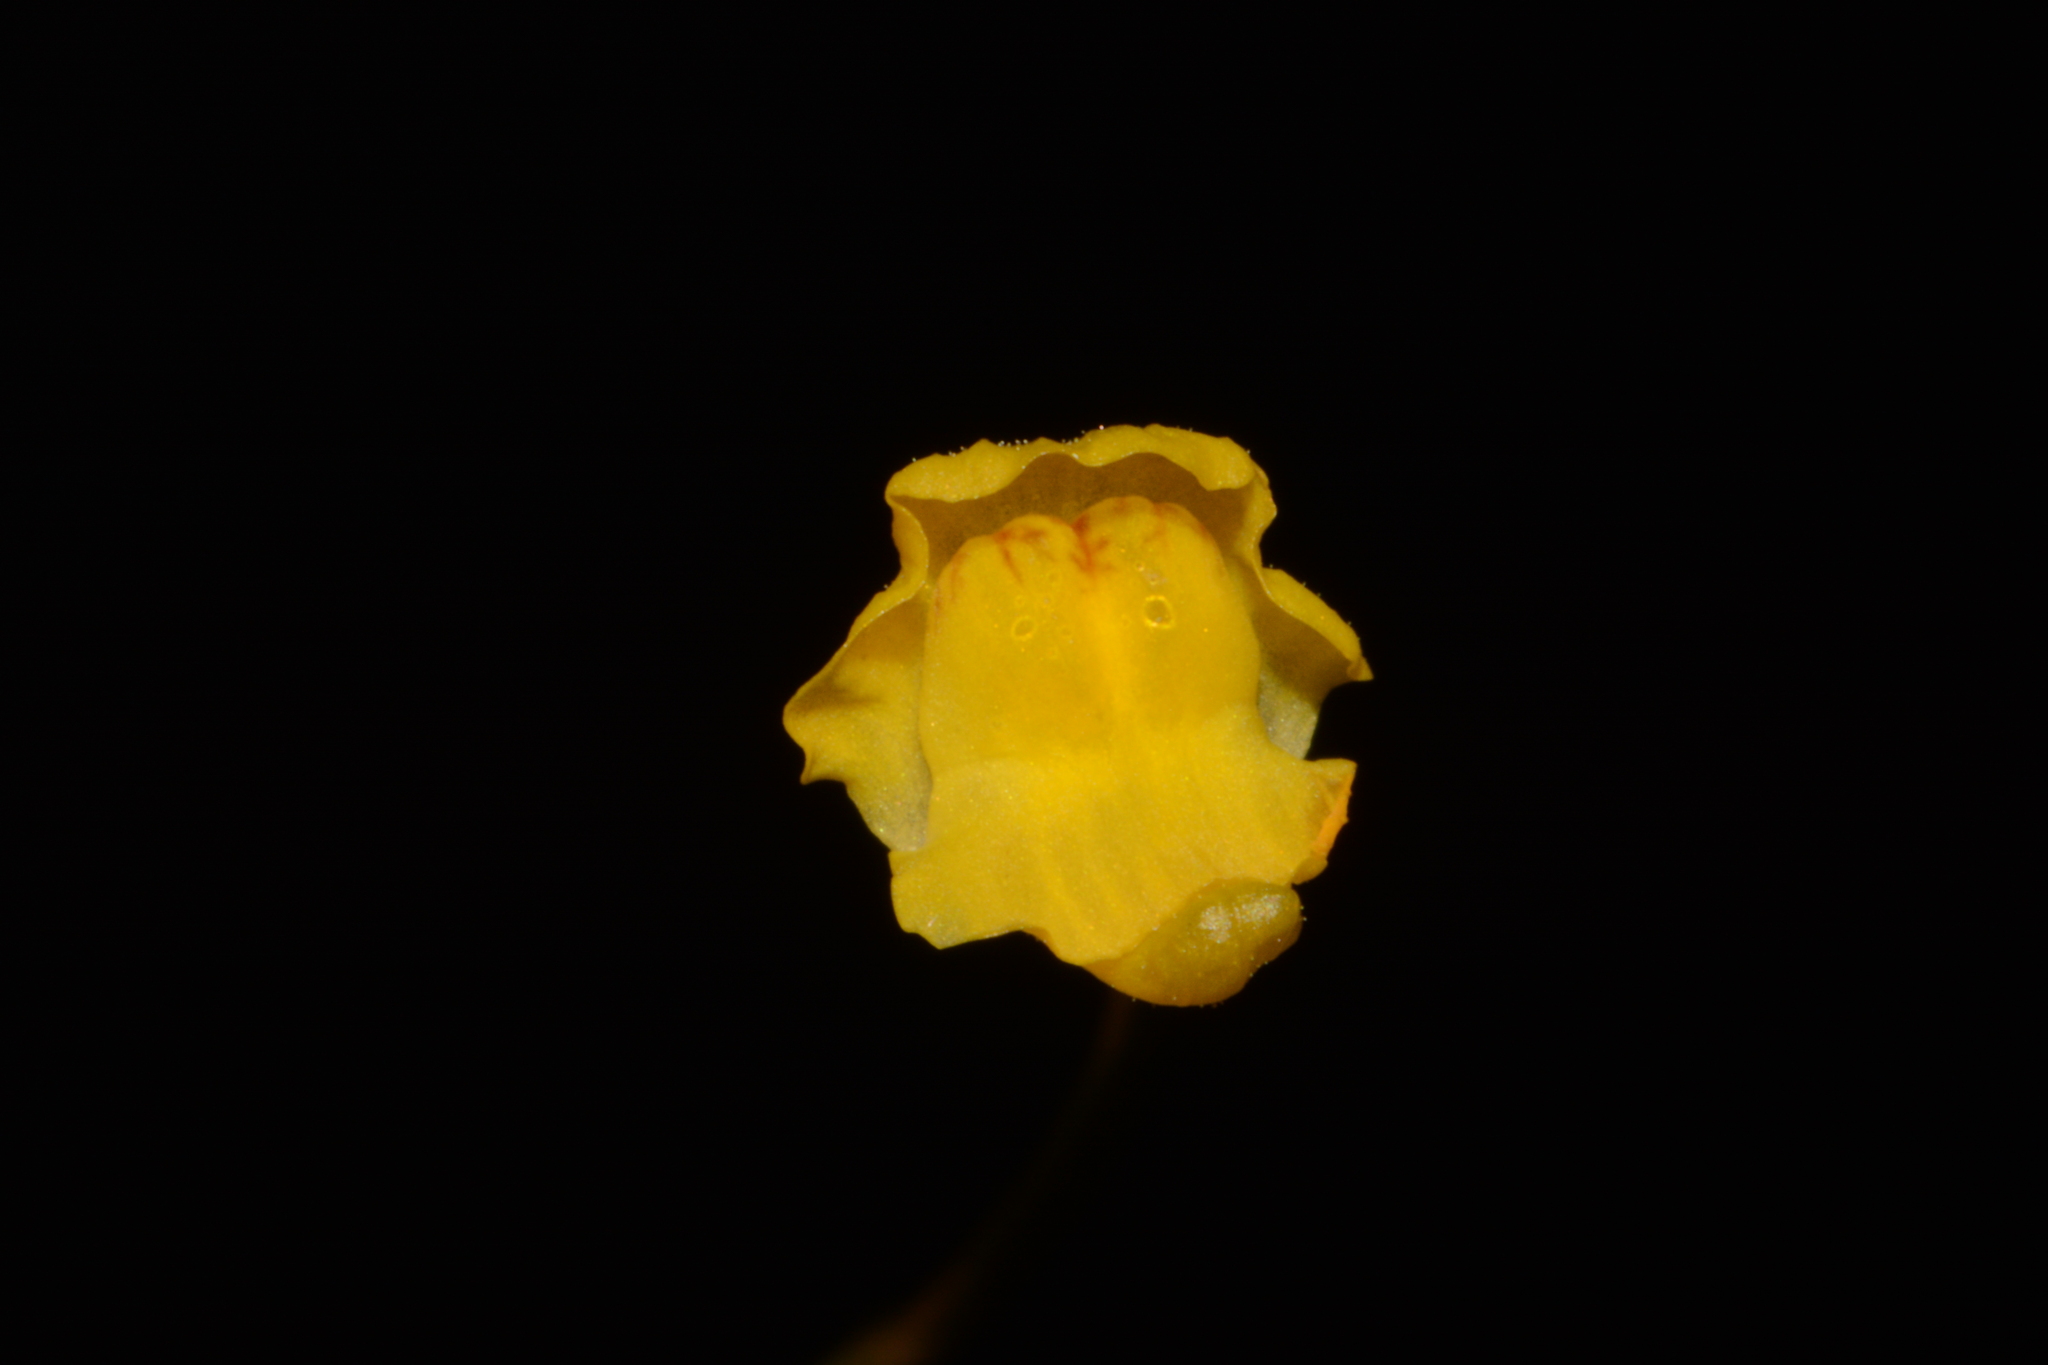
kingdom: Plantae
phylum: Tracheophyta
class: Magnoliopsida
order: Lamiales
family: Lentibulariaceae
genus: Utricularia
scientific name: Utricularia gibba
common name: Humped bladderwort
